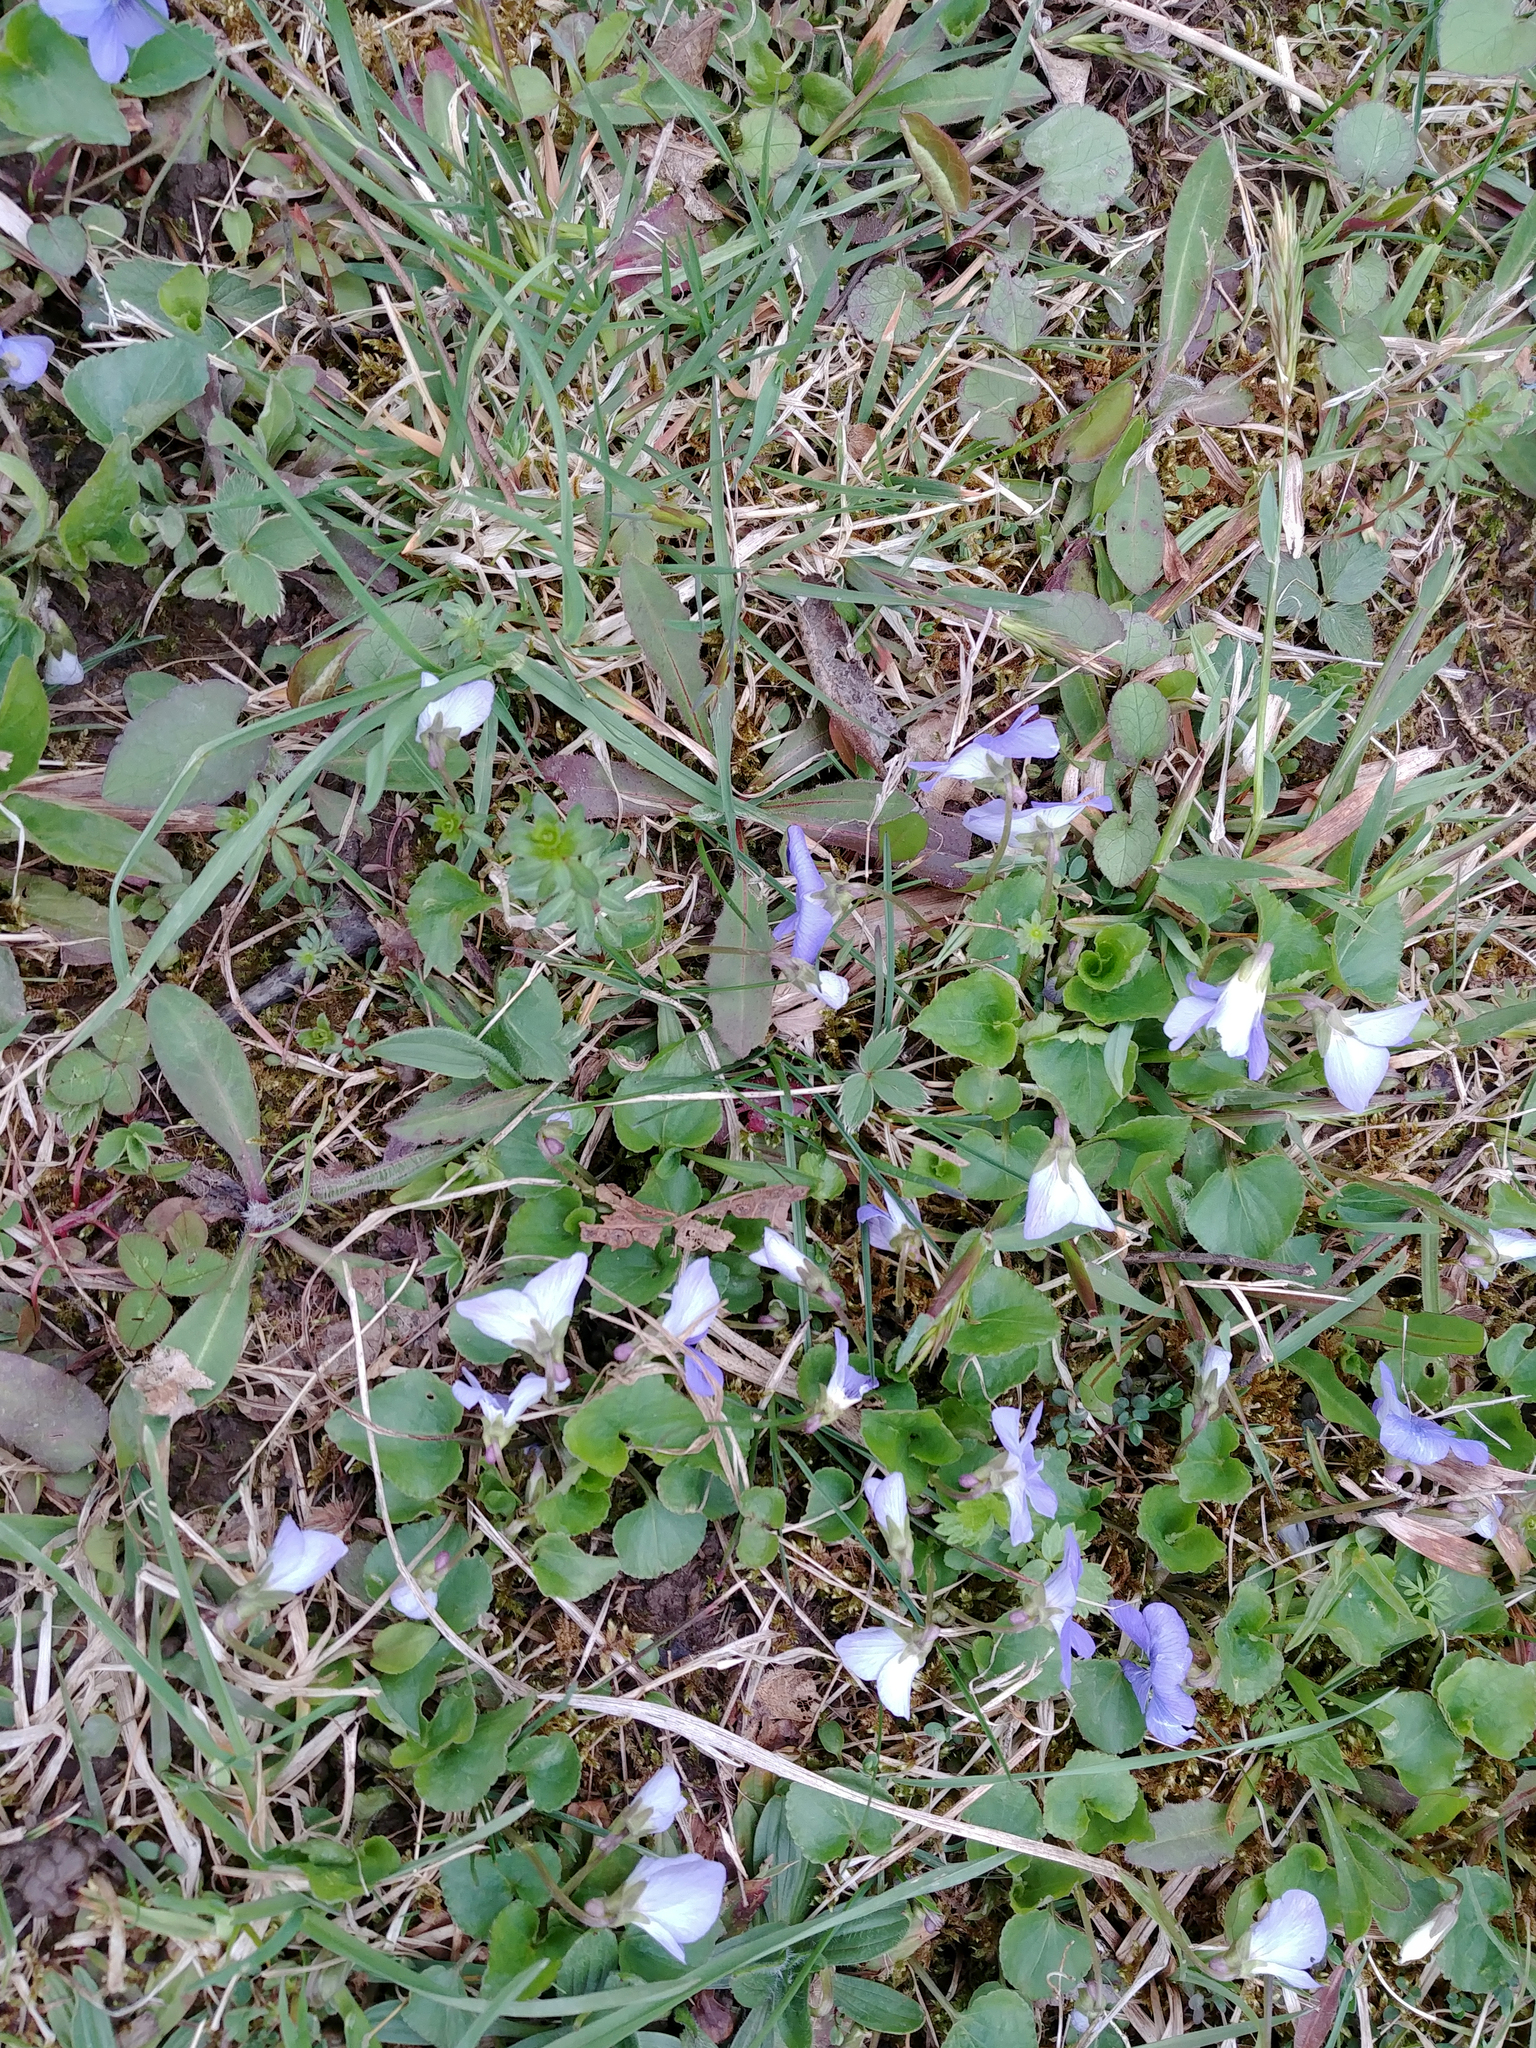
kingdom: Plantae
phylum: Tracheophyta
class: Magnoliopsida
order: Malpighiales
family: Violaceae
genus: Viola
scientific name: Viola labradorica
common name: Labrador violet
